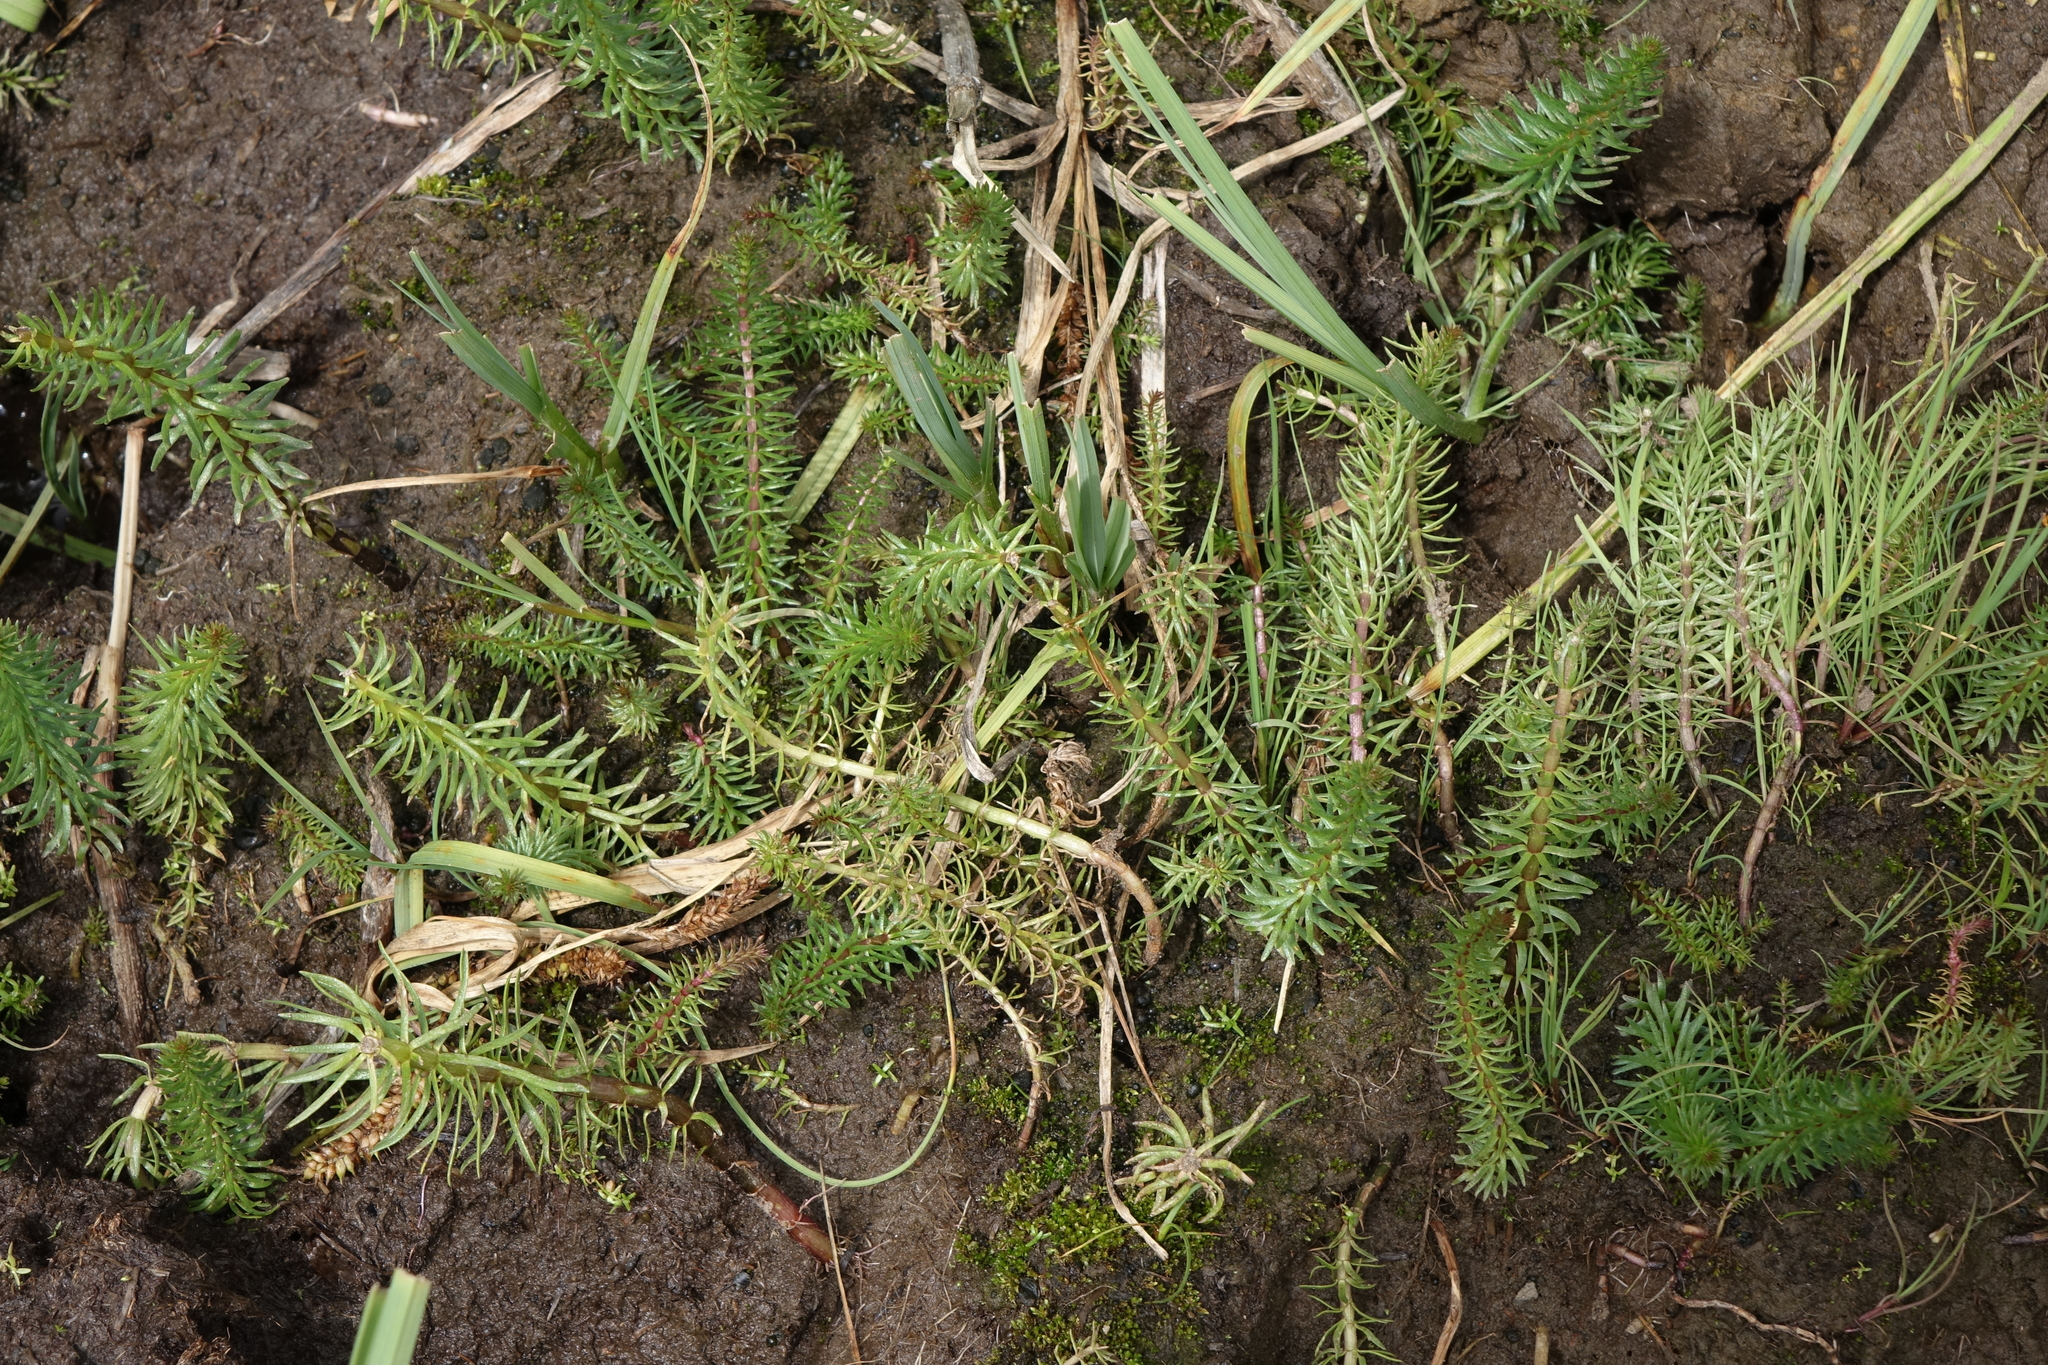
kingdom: Plantae
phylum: Tracheophyta
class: Magnoliopsida
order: Lamiales
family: Plantaginaceae
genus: Hippuris
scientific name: Hippuris vulgaris
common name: Mare's-tail
